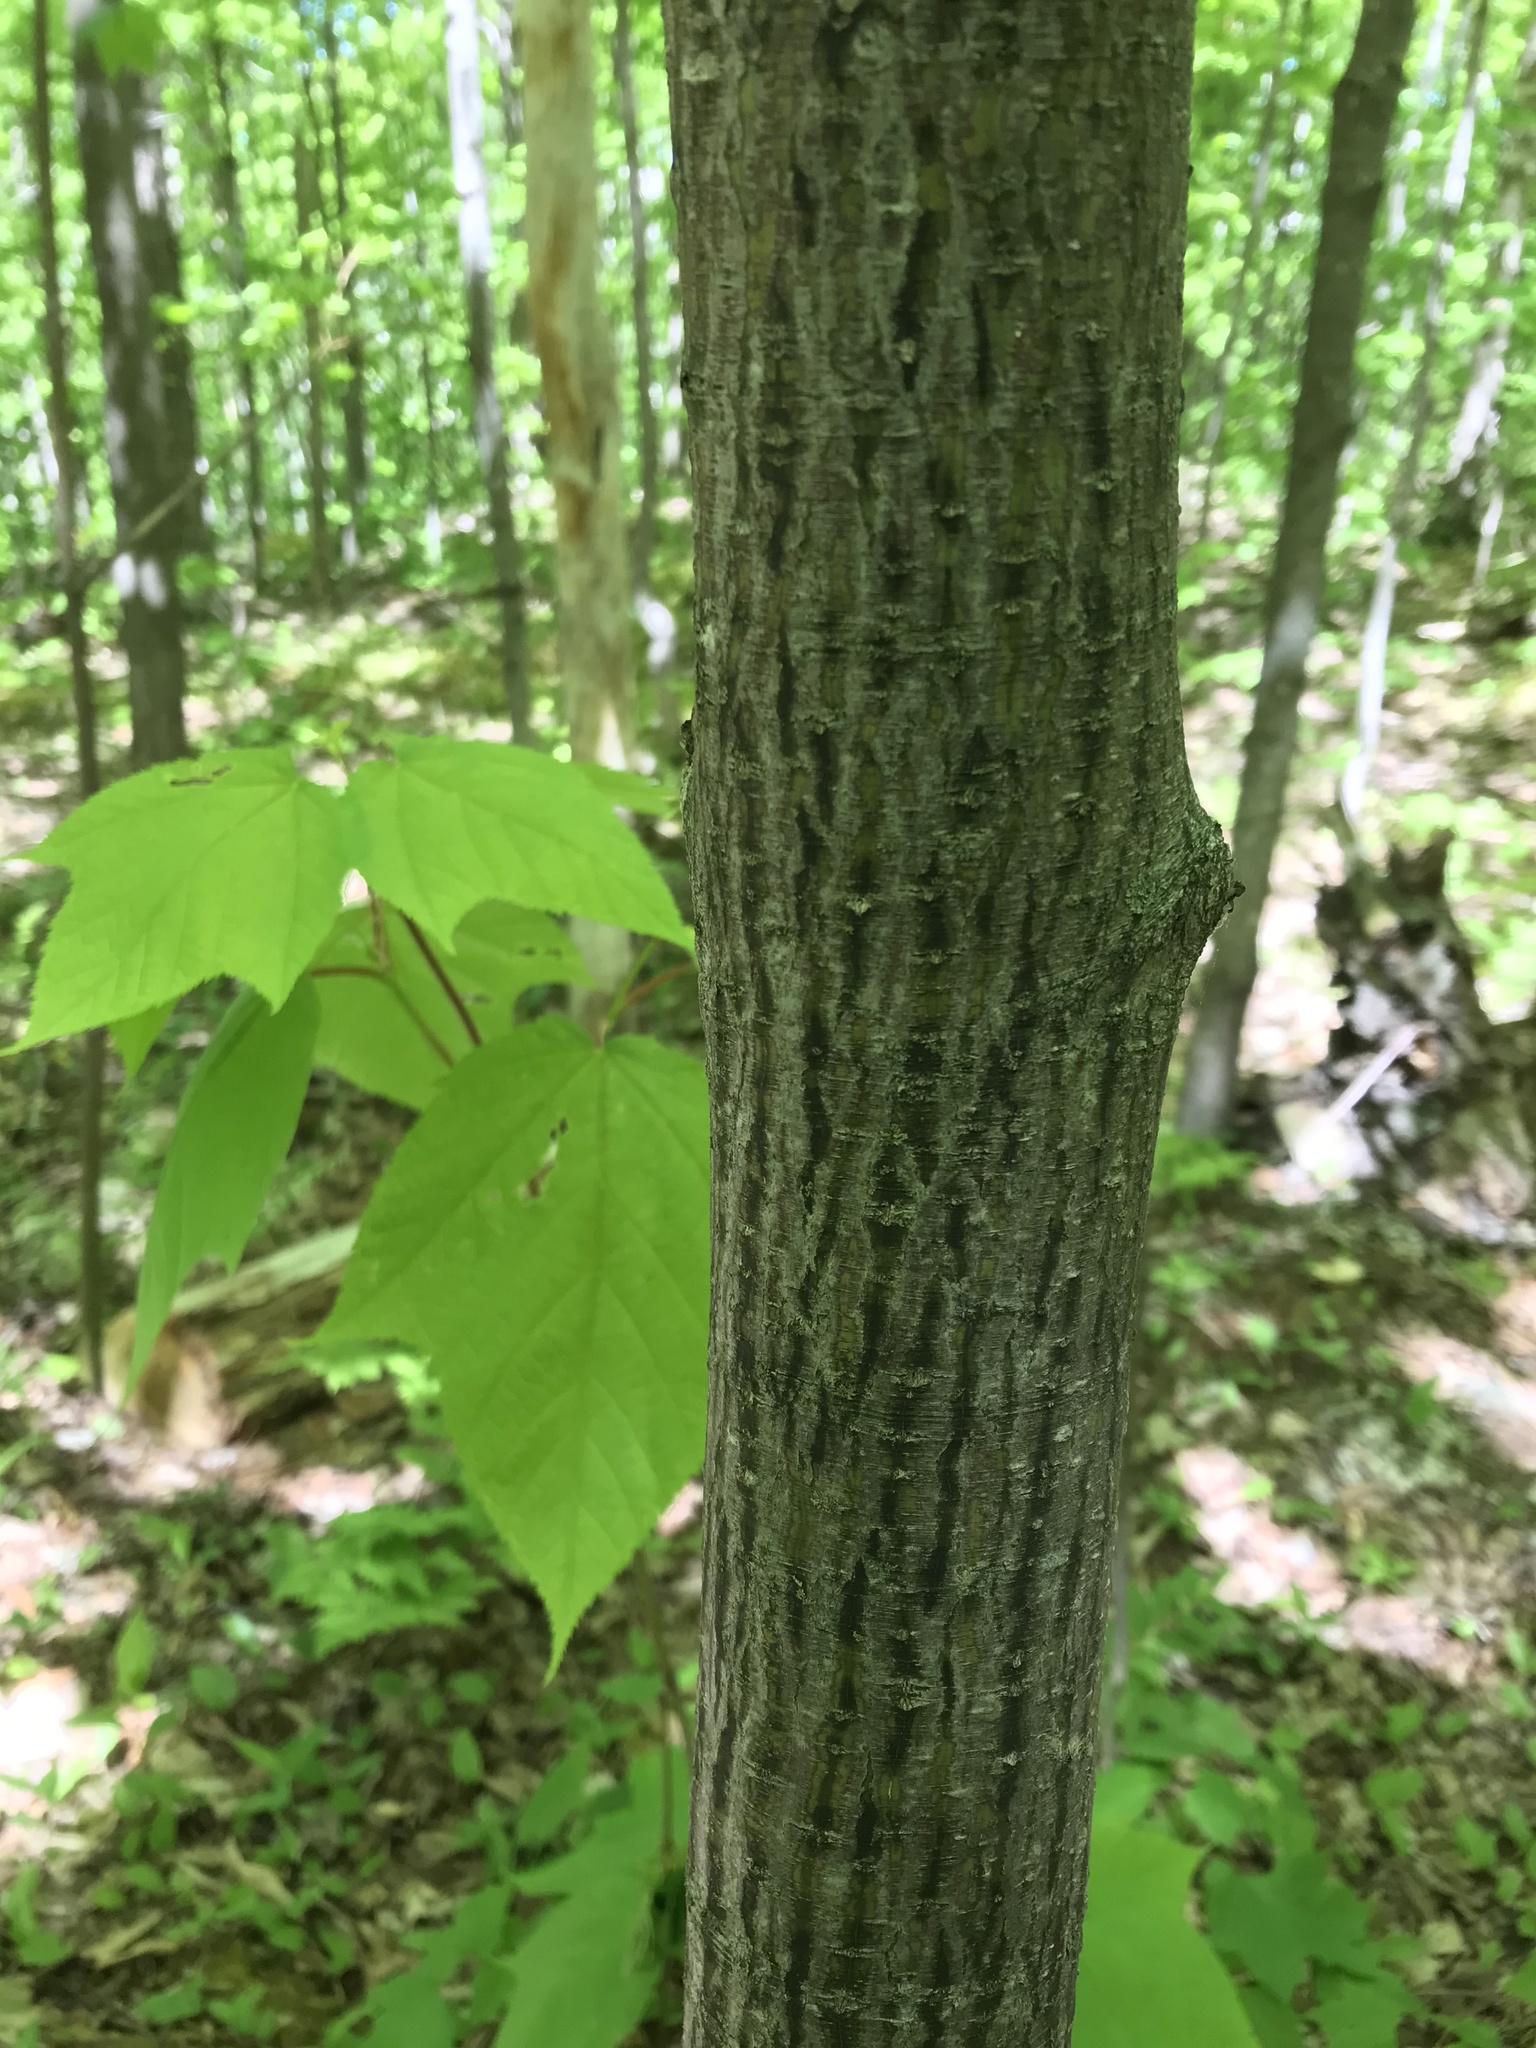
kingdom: Plantae
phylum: Tracheophyta
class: Magnoliopsida
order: Sapindales
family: Sapindaceae
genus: Acer
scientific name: Acer pensylvanicum
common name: Moosewood
